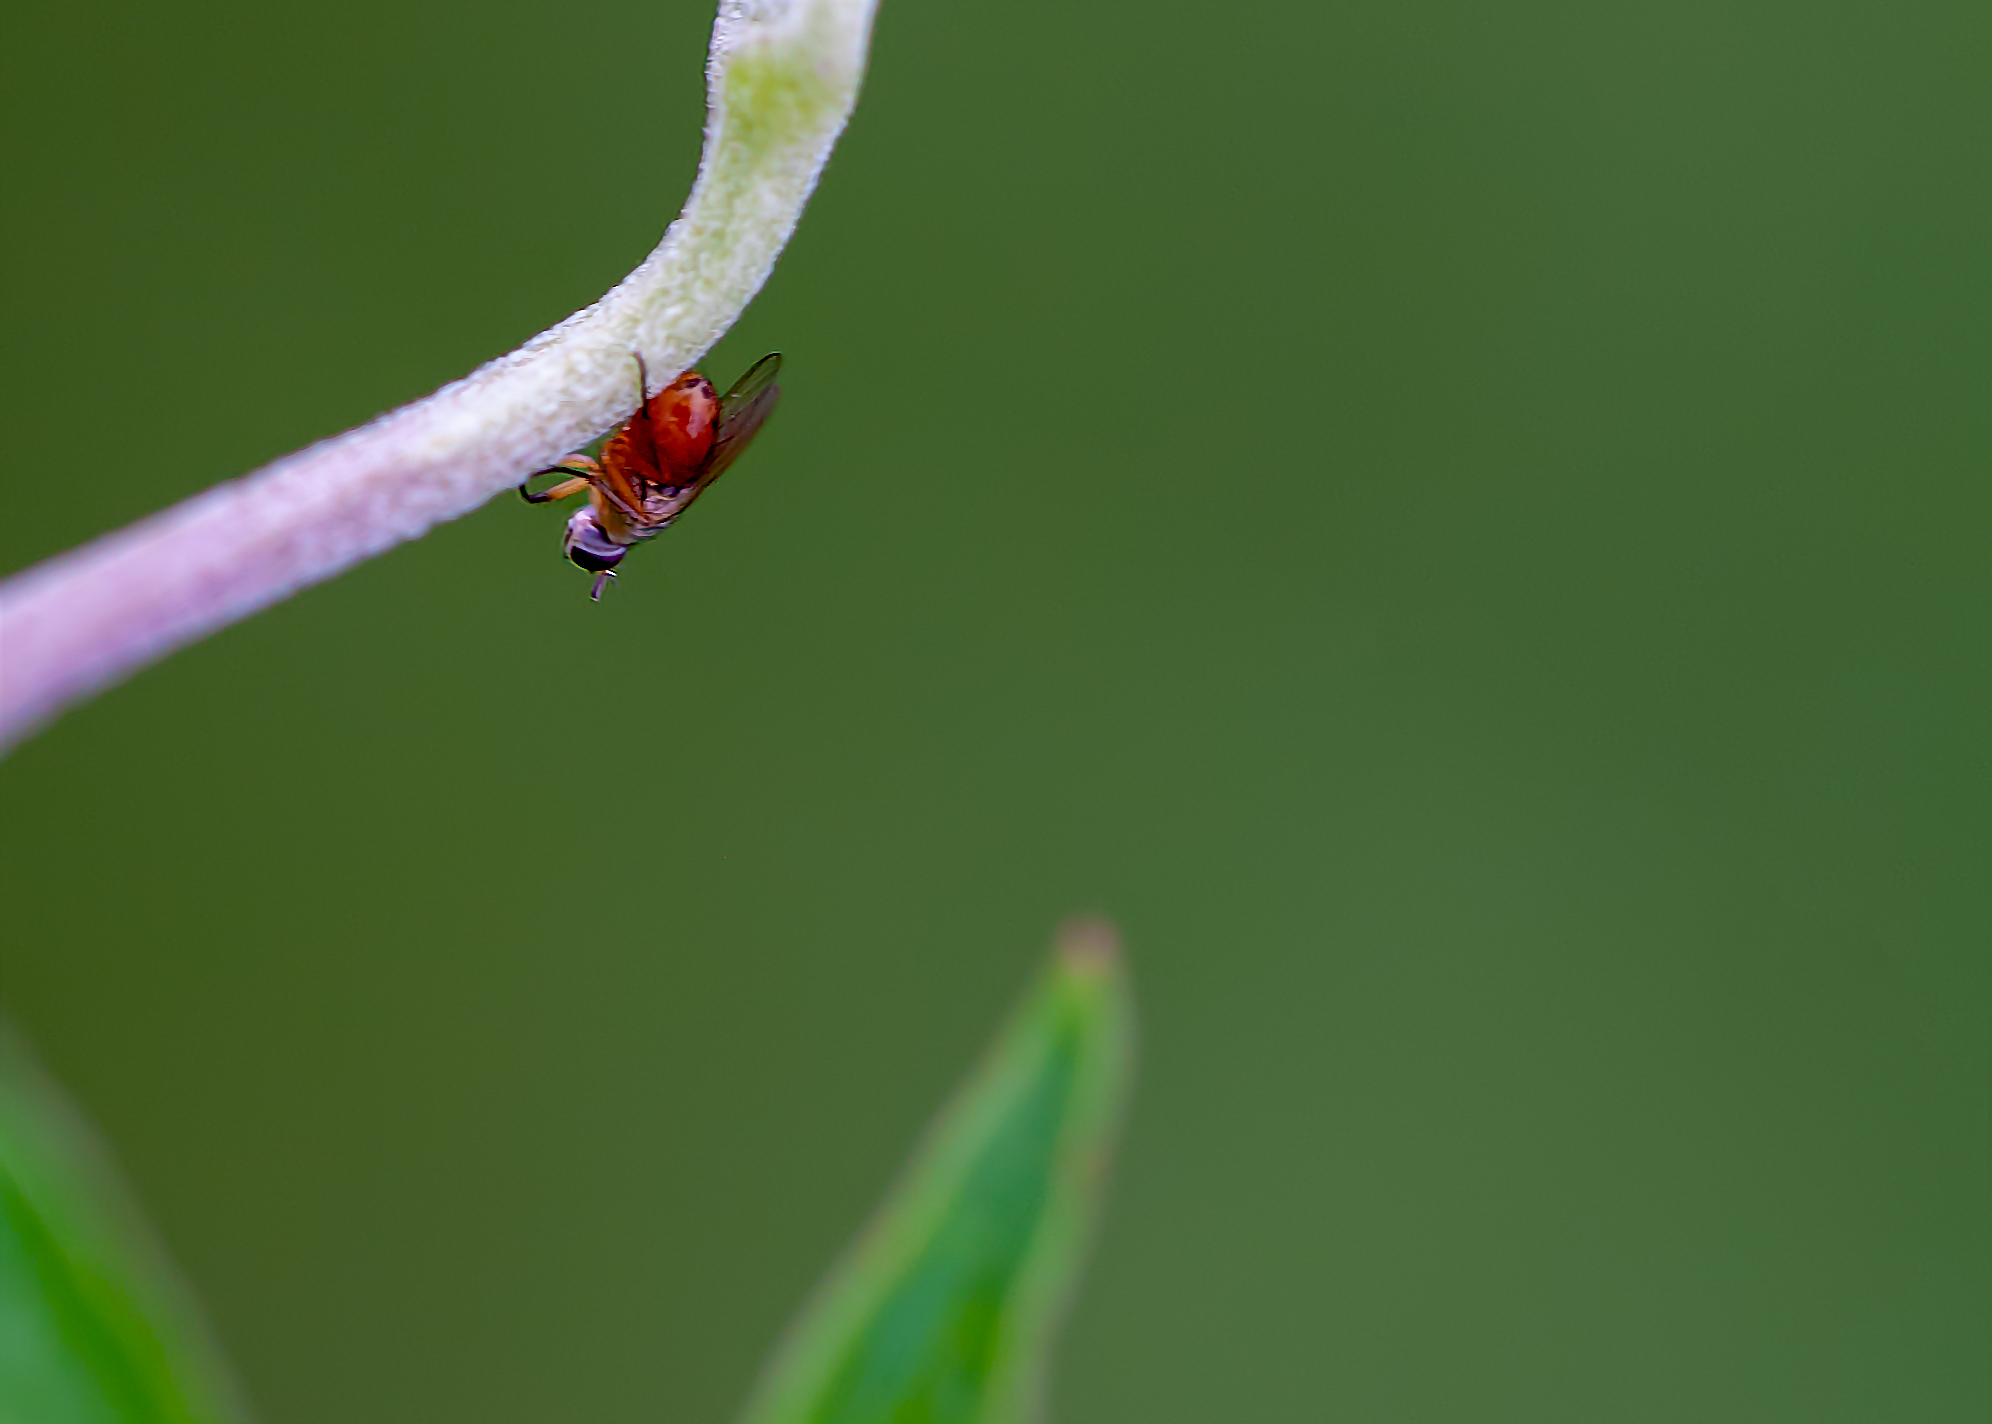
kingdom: Animalia
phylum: Arthropoda
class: Insecta
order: Diptera
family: Muscidae
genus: Atherigona
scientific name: Atherigona reversura
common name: Bermudagrass stem maggot
